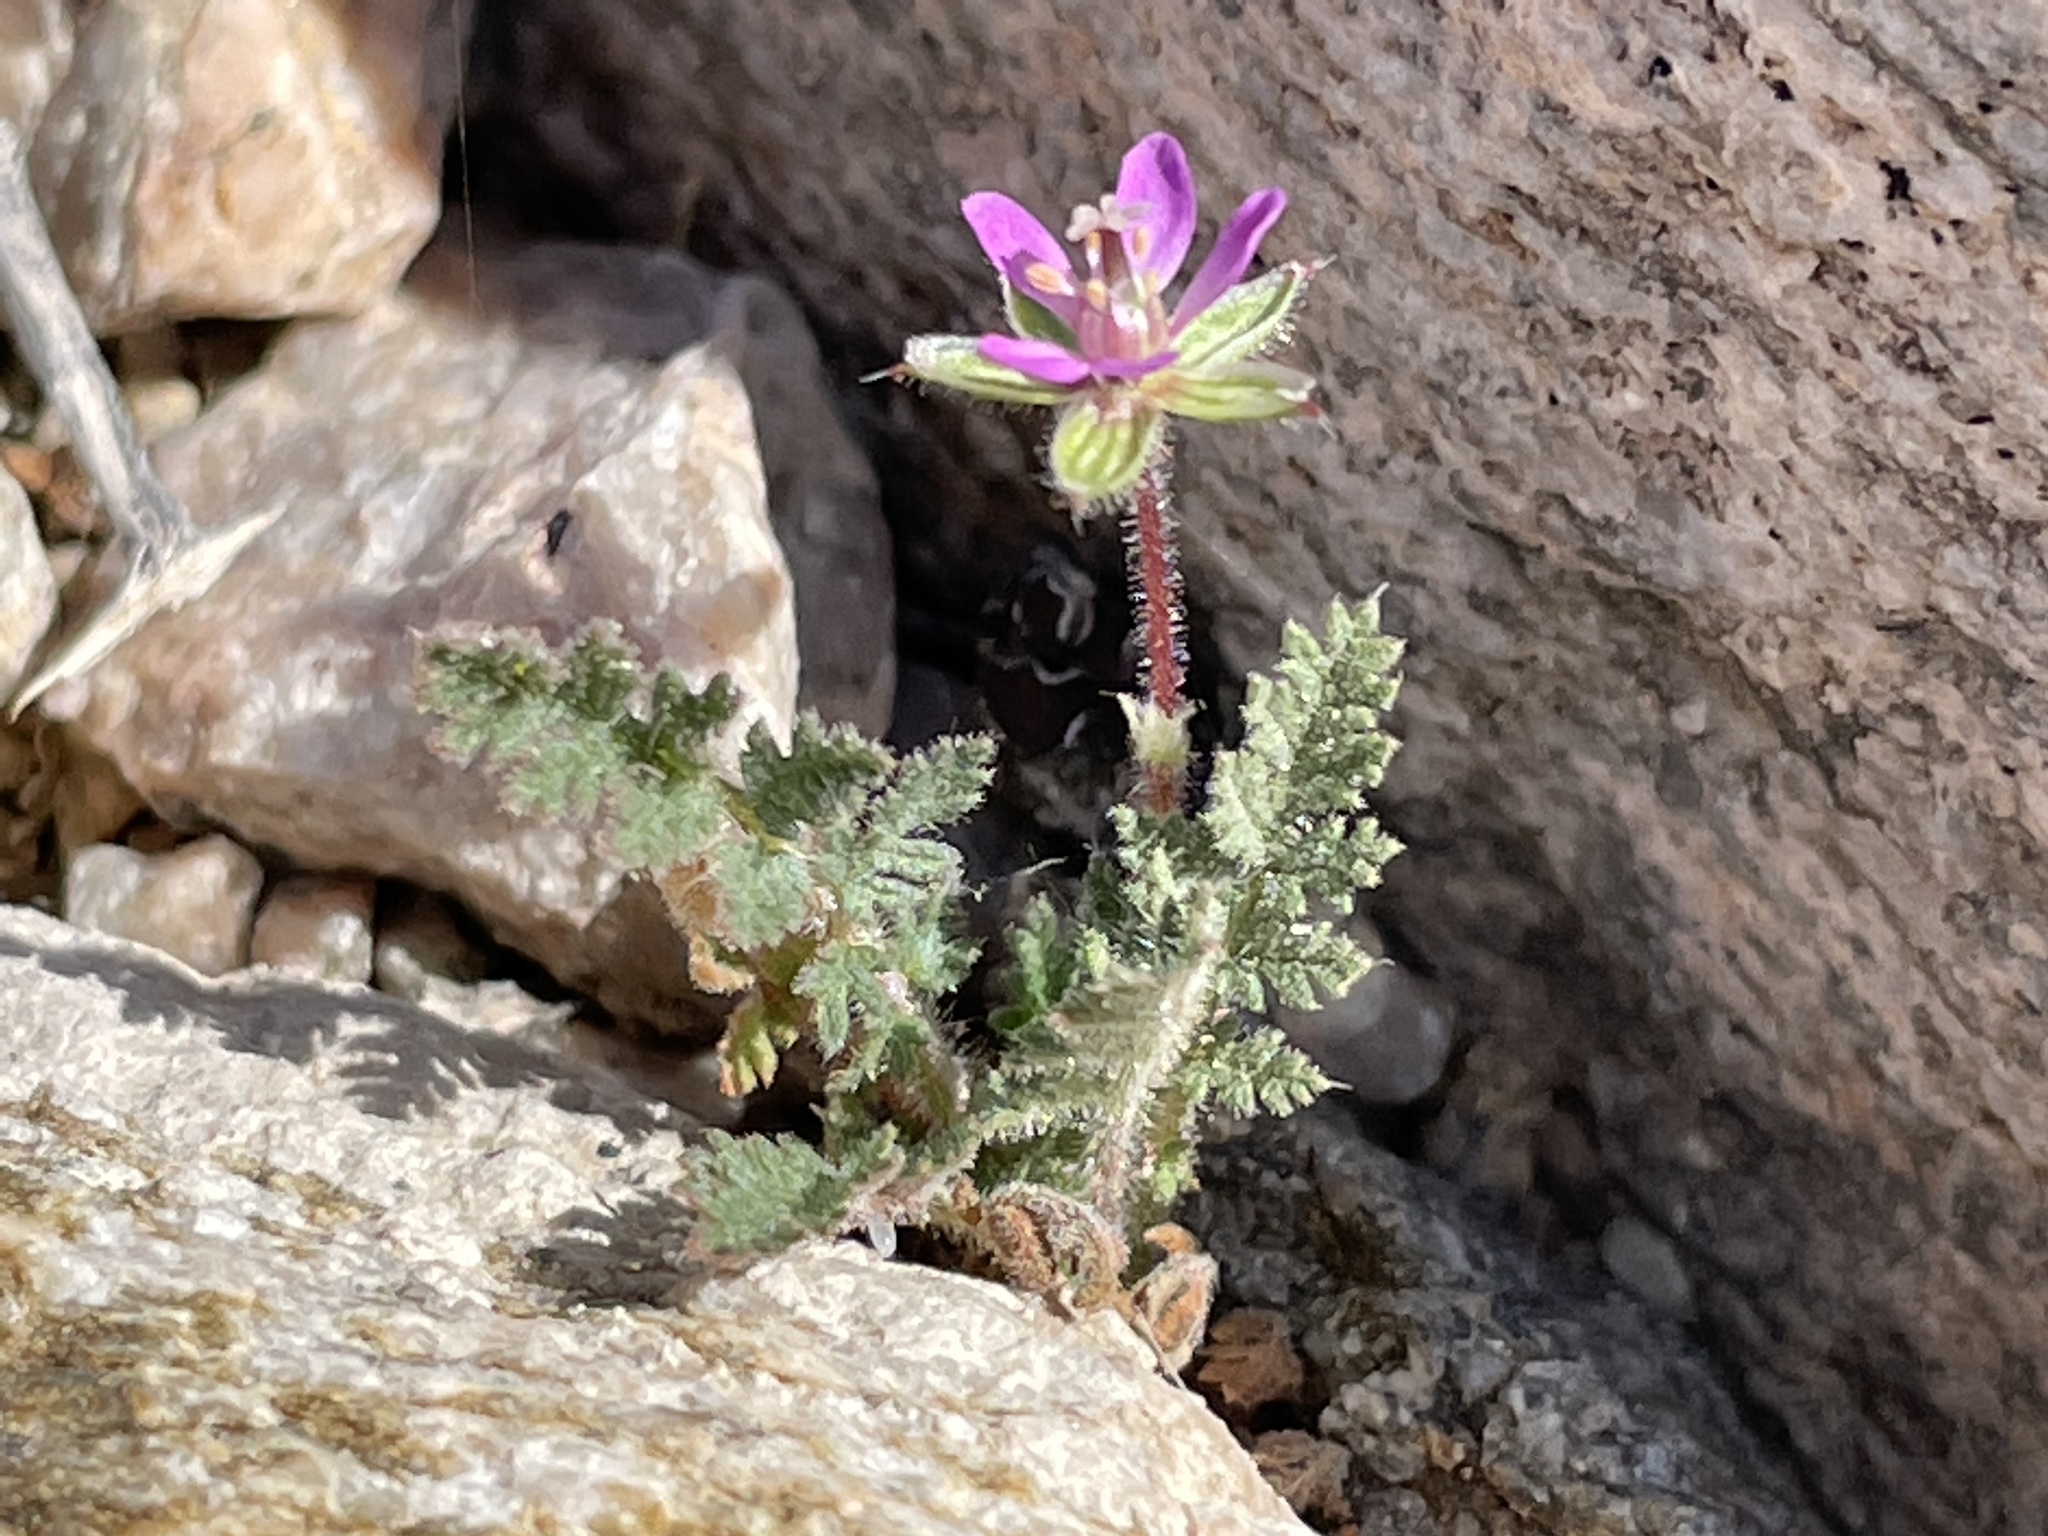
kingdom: Plantae
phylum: Tracheophyta
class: Magnoliopsida
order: Geraniales
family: Geraniaceae
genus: Erodium
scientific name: Erodium cicutarium
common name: Common stork's-bill
